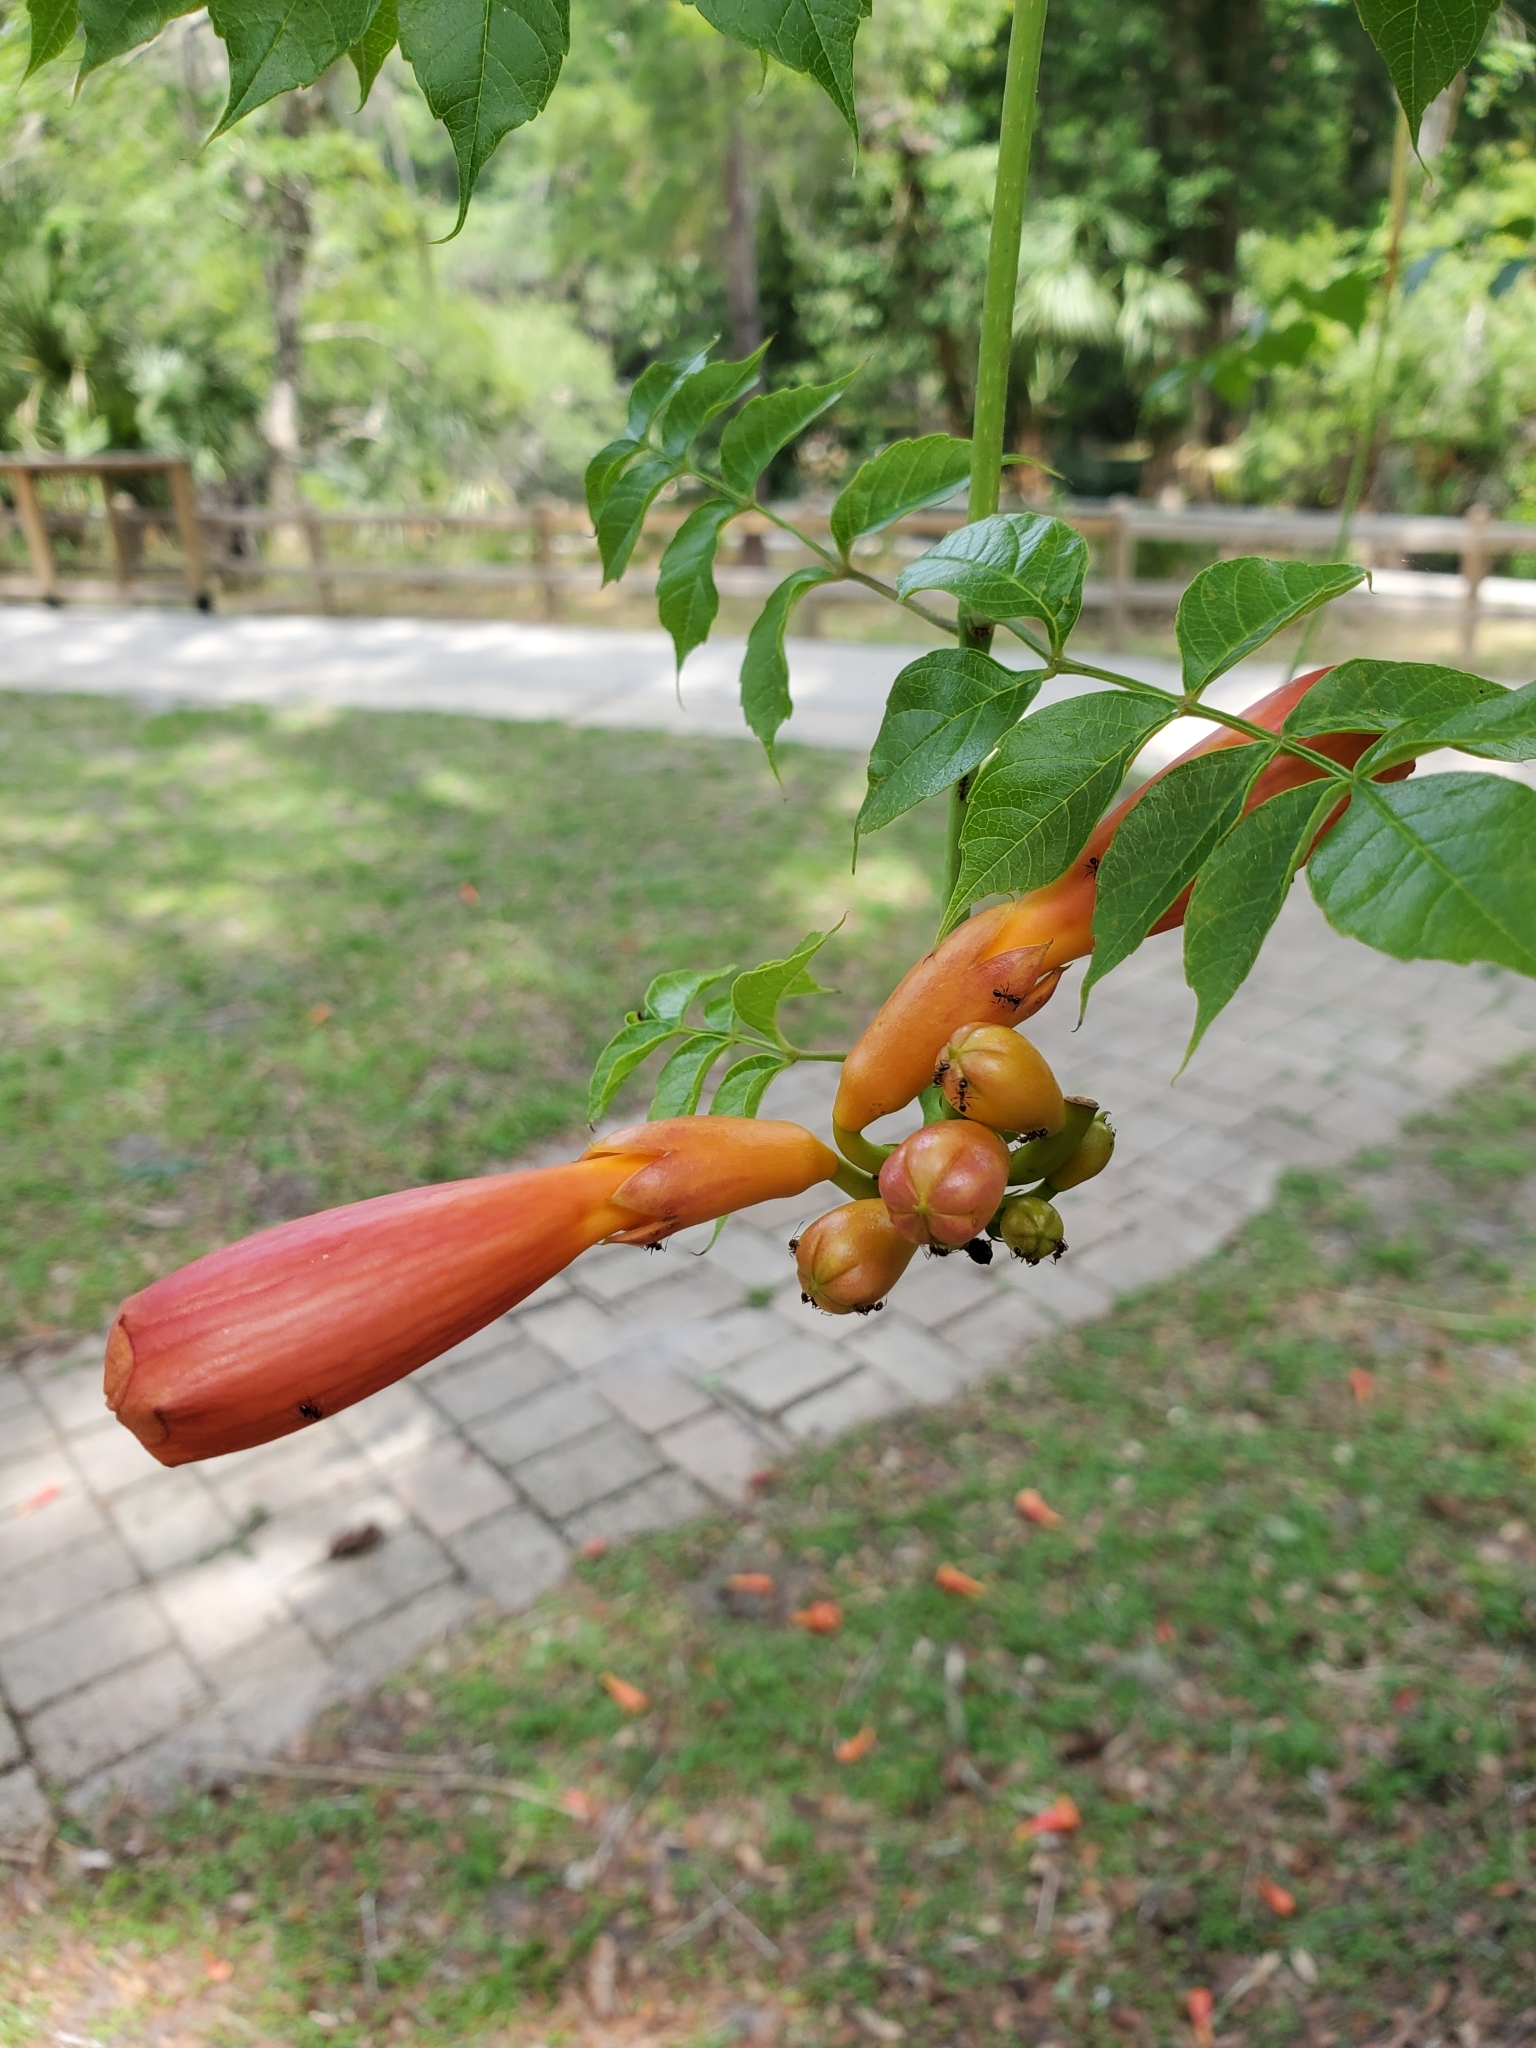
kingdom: Plantae
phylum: Tracheophyta
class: Magnoliopsida
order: Lamiales
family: Bignoniaceae
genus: Campsis
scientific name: Campsis radicans
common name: Trumpet-creeper
